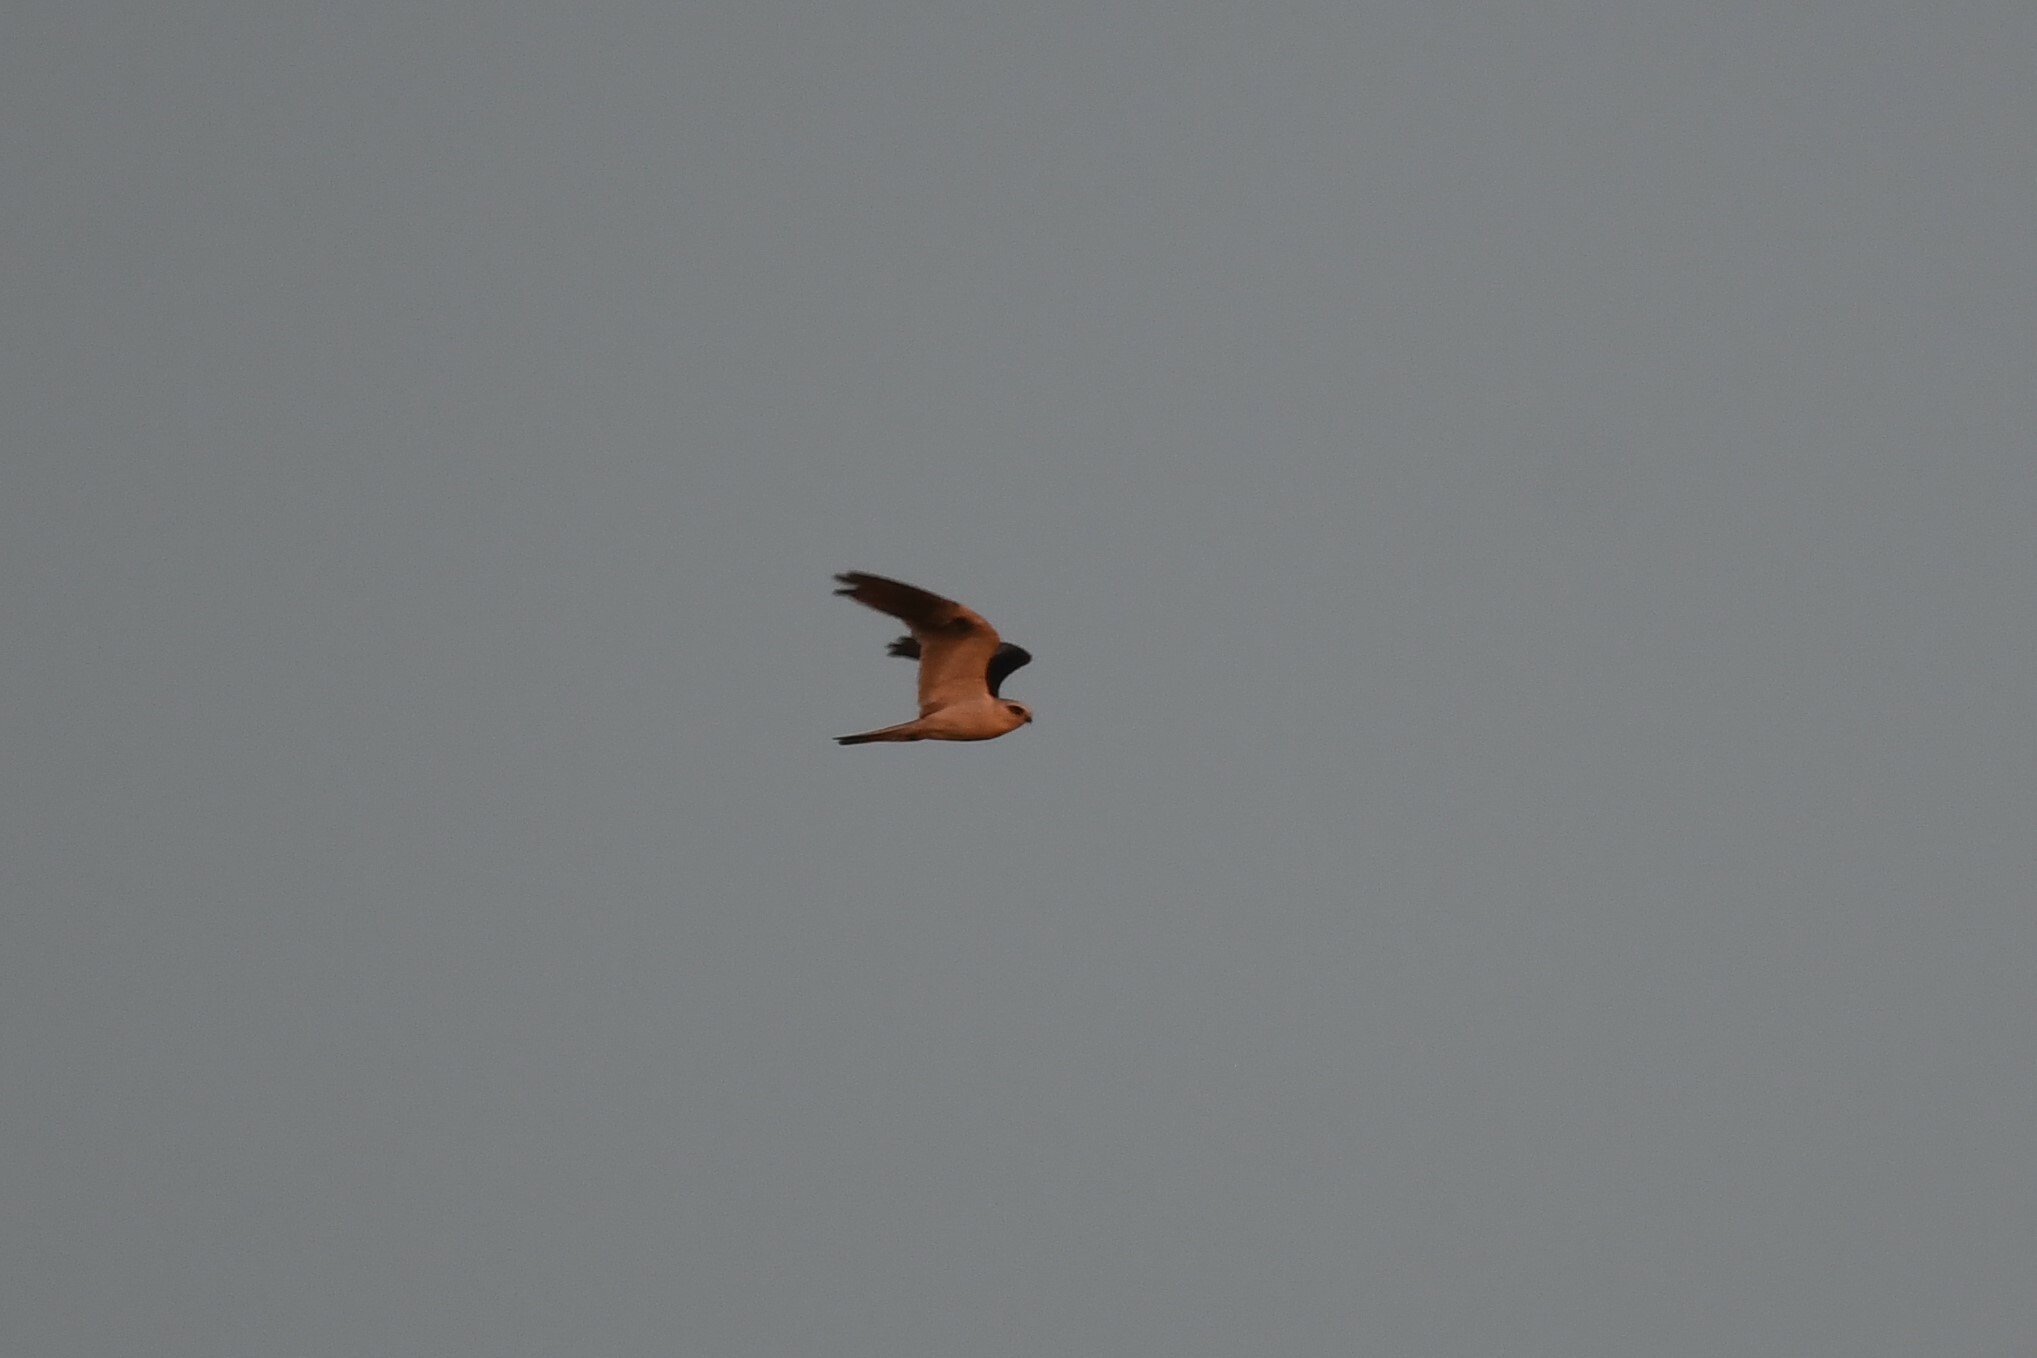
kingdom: Animalia
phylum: Chordata
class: Aves
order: Accipitriformes
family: Accipitridae
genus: Elanus
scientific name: Elanus leucurus
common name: White-tailed kite
